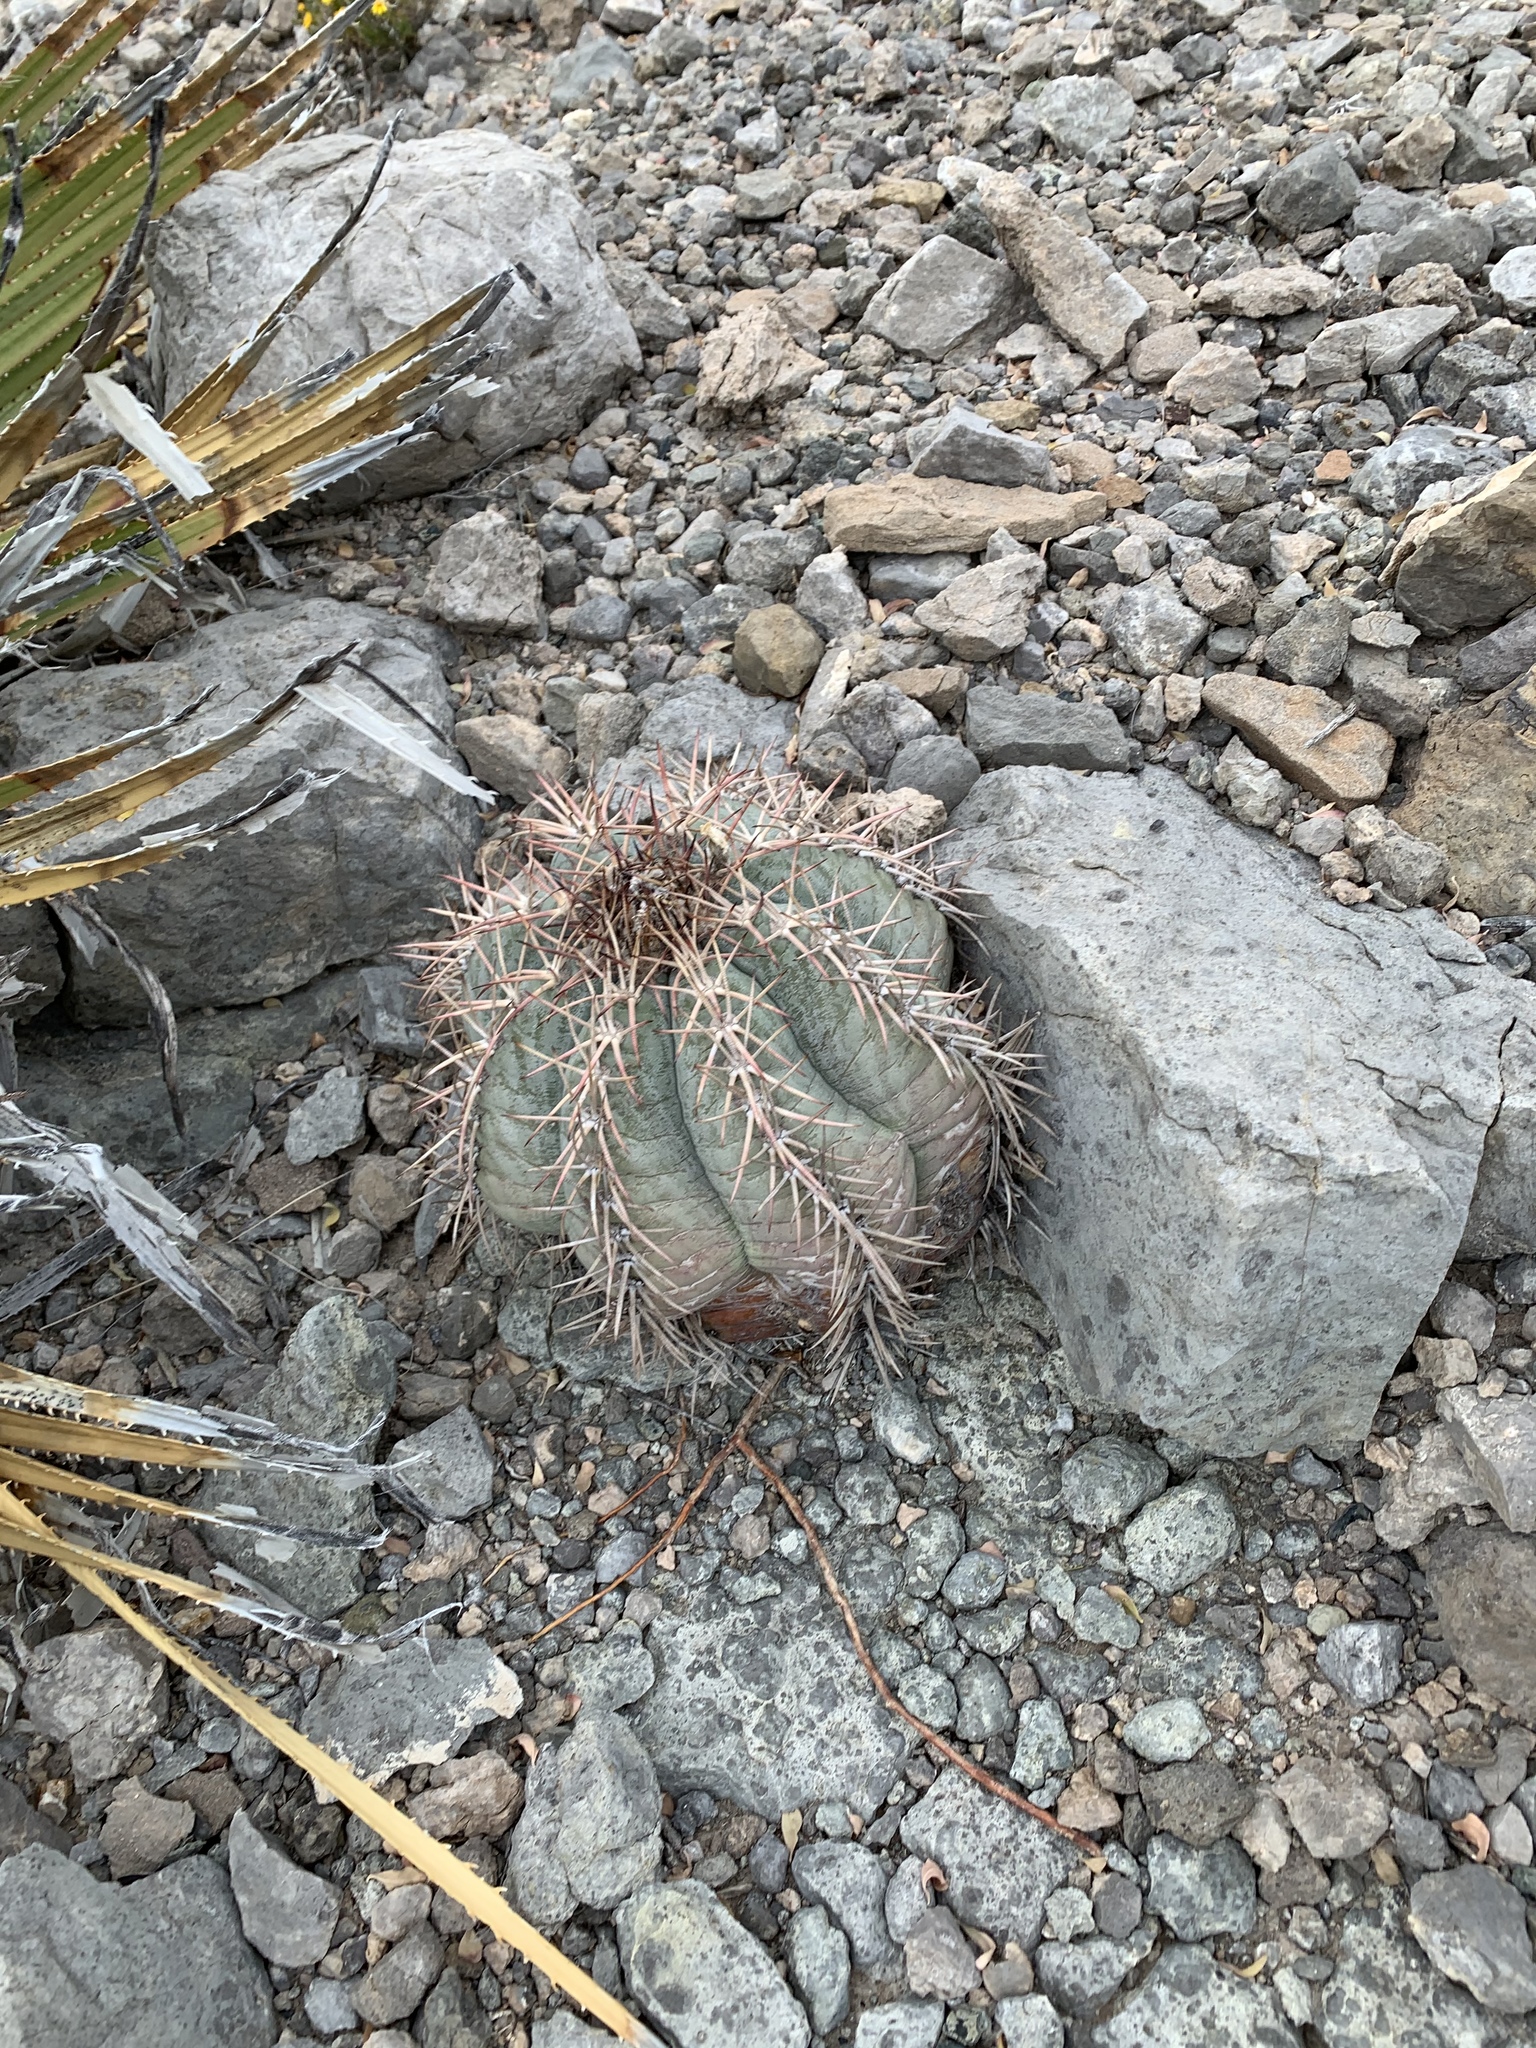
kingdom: Plantae
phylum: Tracheophyta
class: Magnoliopsida
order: Caryophyllales
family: Cactaceae
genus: Echinocactus
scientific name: Echinocactus horizonthalonius
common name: Devilshead
